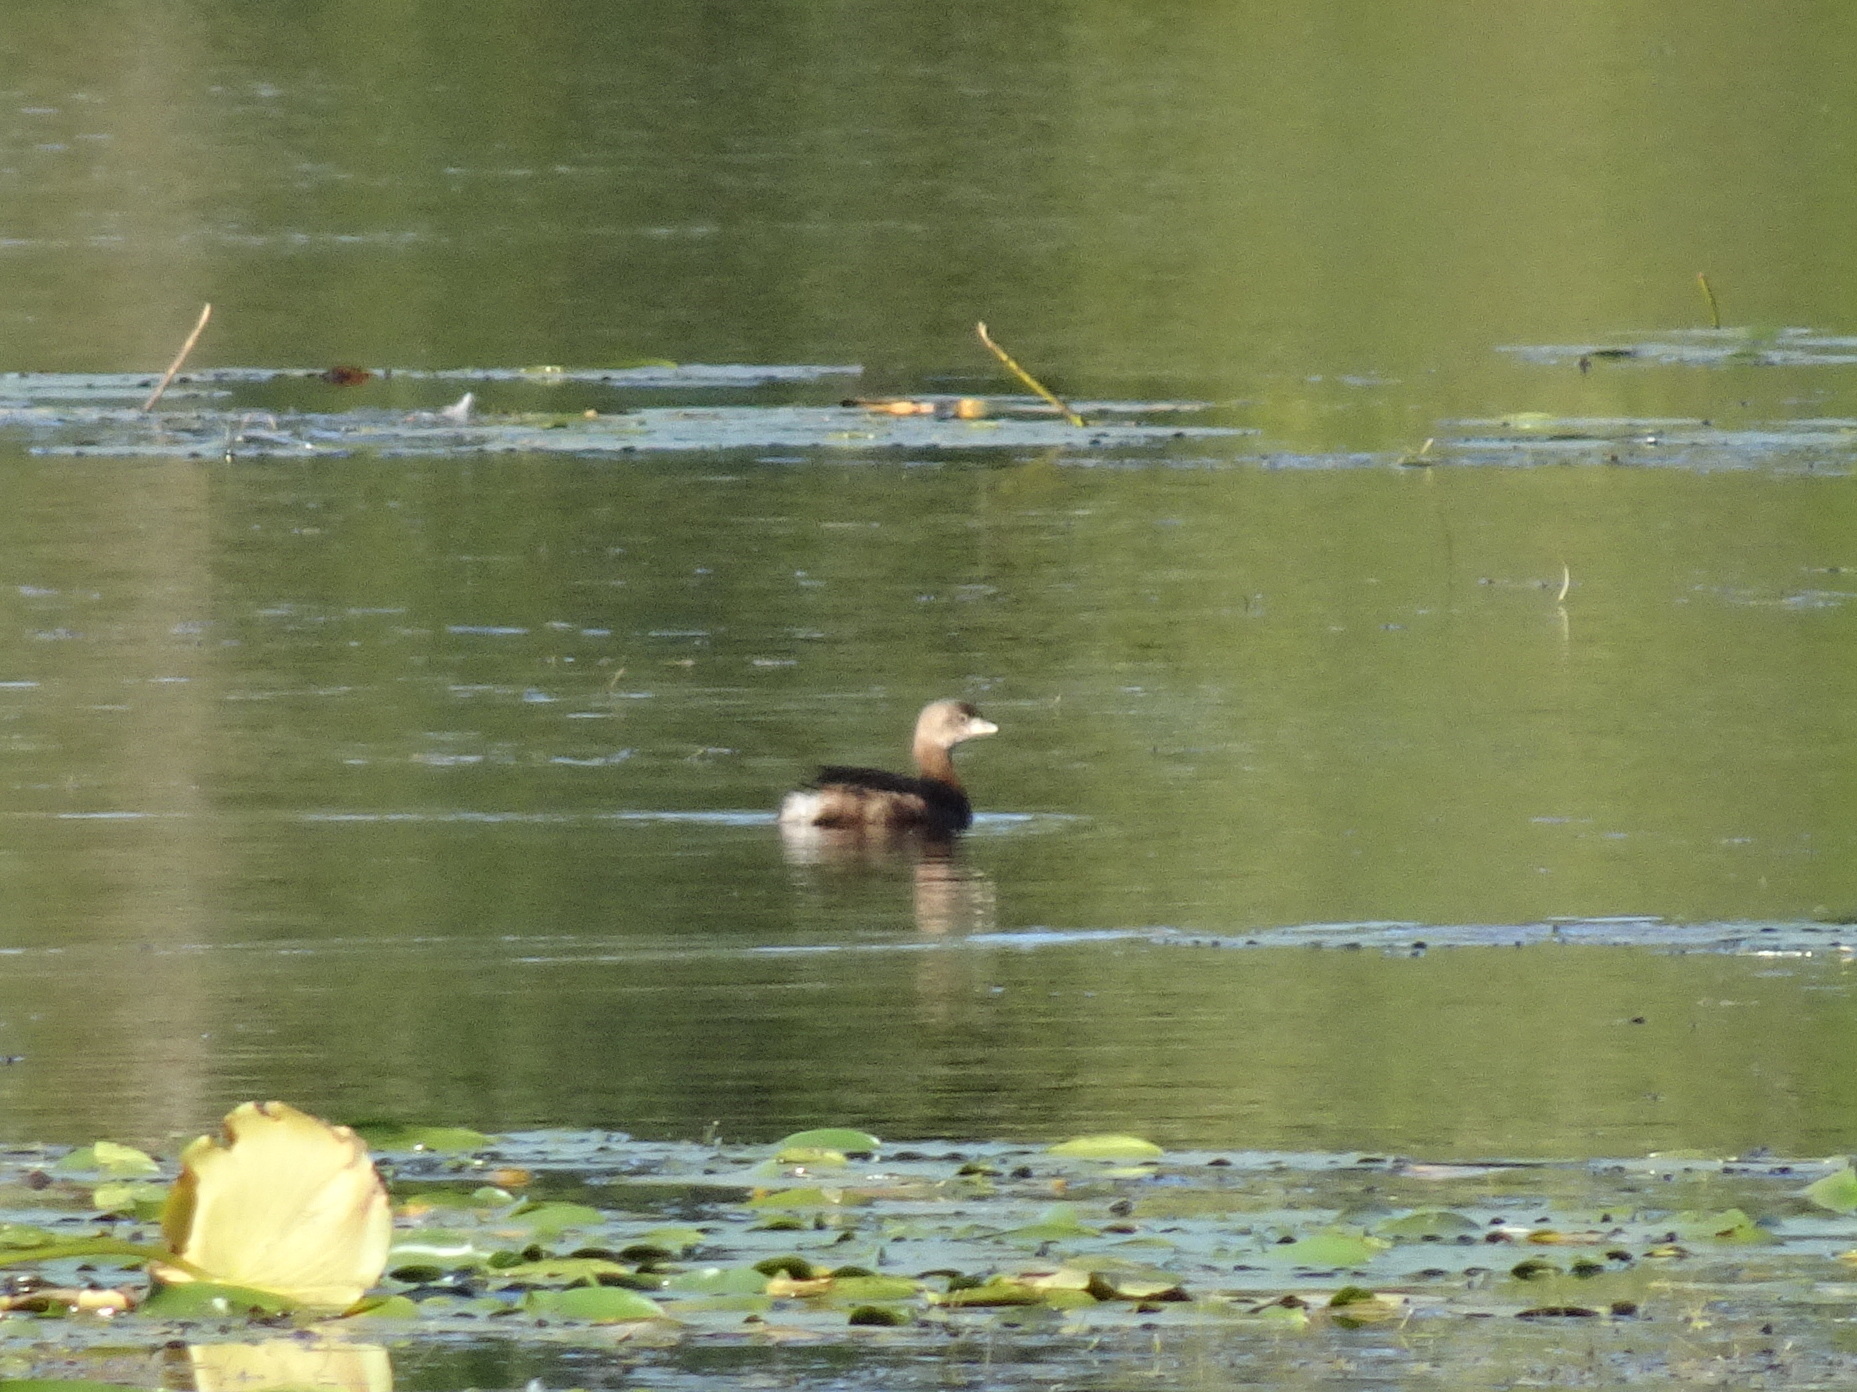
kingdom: Animalia
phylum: Chordata
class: Aves
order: Podicipediformes
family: Podicipedidae
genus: Podilymbus
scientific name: Podilymbus podiceps
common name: Pied-billed grebe
